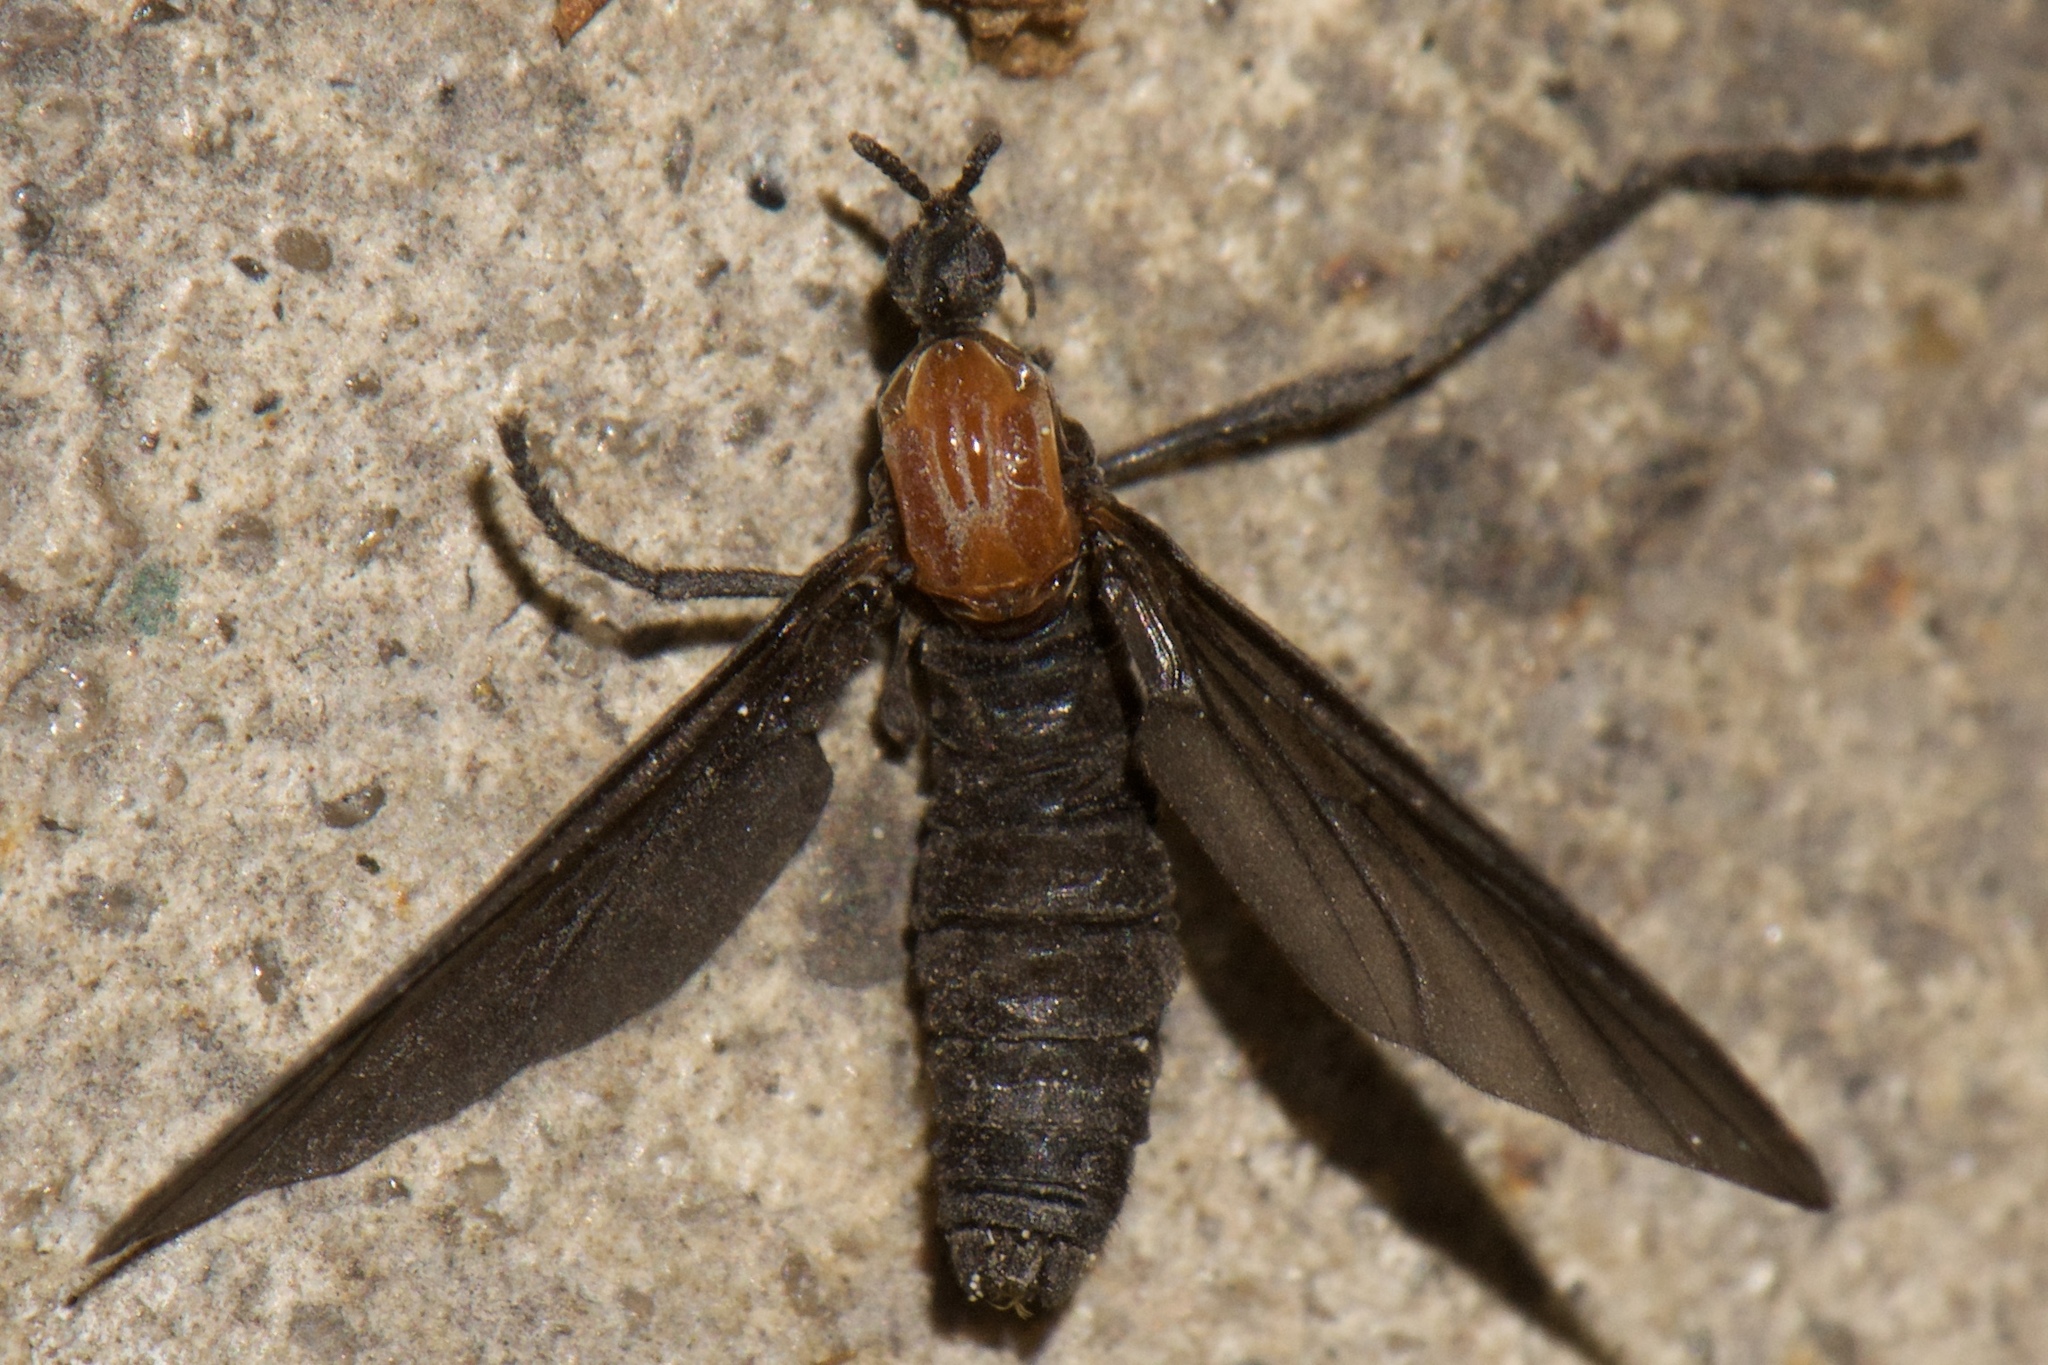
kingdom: Animalia
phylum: Arthropoda
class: Insecta
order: Diptera
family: Bibionidae
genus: Plecia
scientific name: Plecia nearctica
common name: March fly
